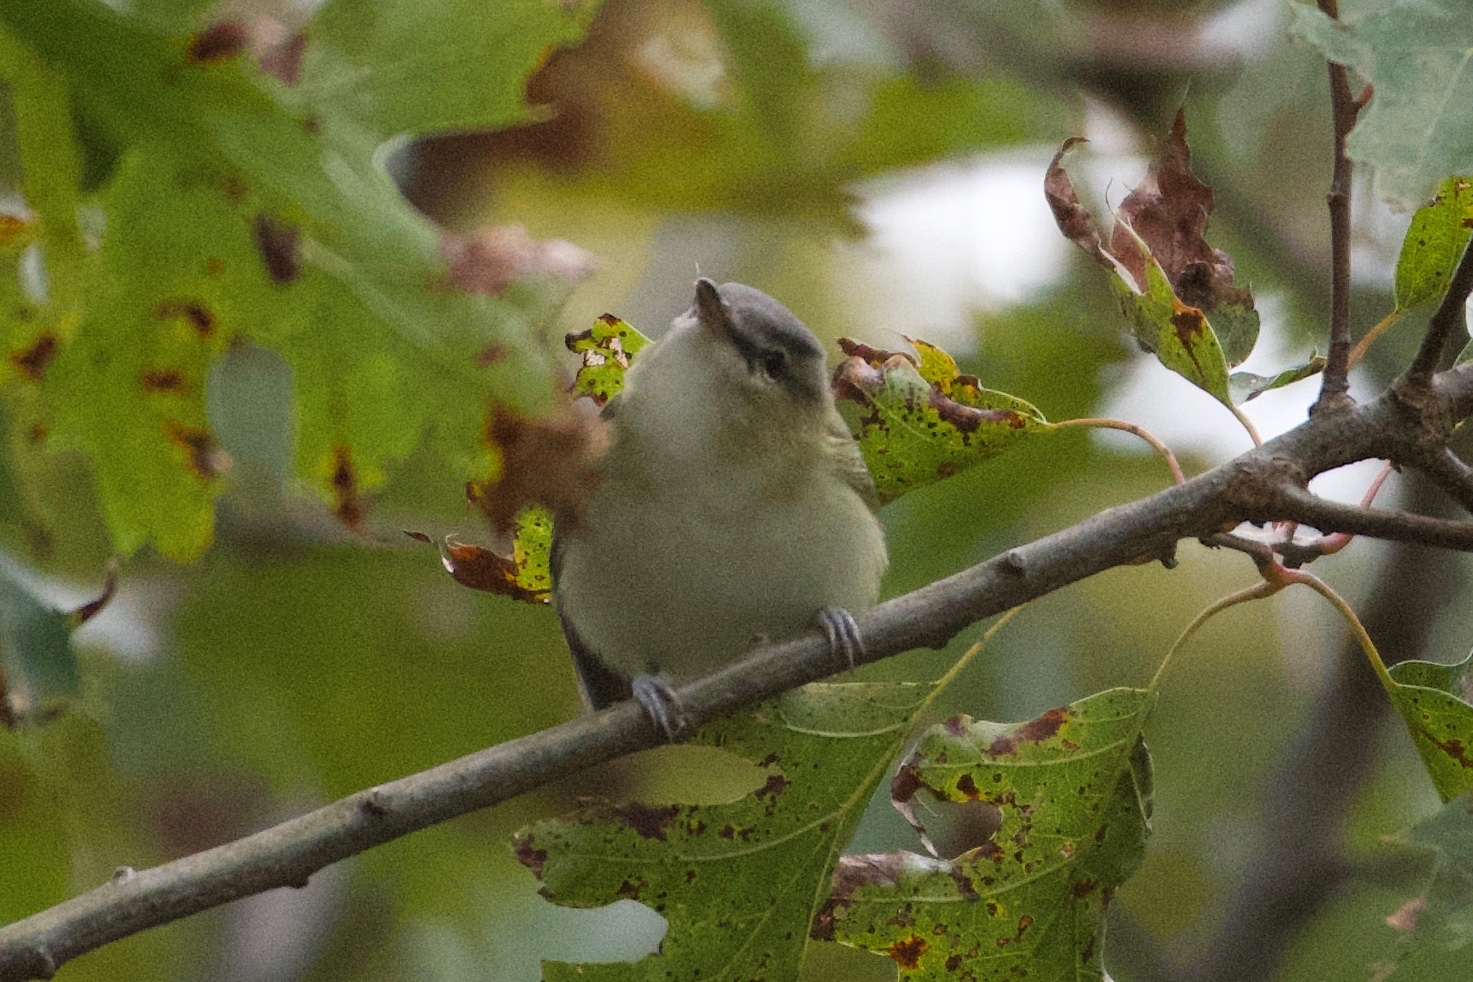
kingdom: Animalia
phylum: Chordata
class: Aves
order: Passeriformes
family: Vireonidae
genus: Vireo
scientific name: Vireo olivaceus
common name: Red-eyed vireo
